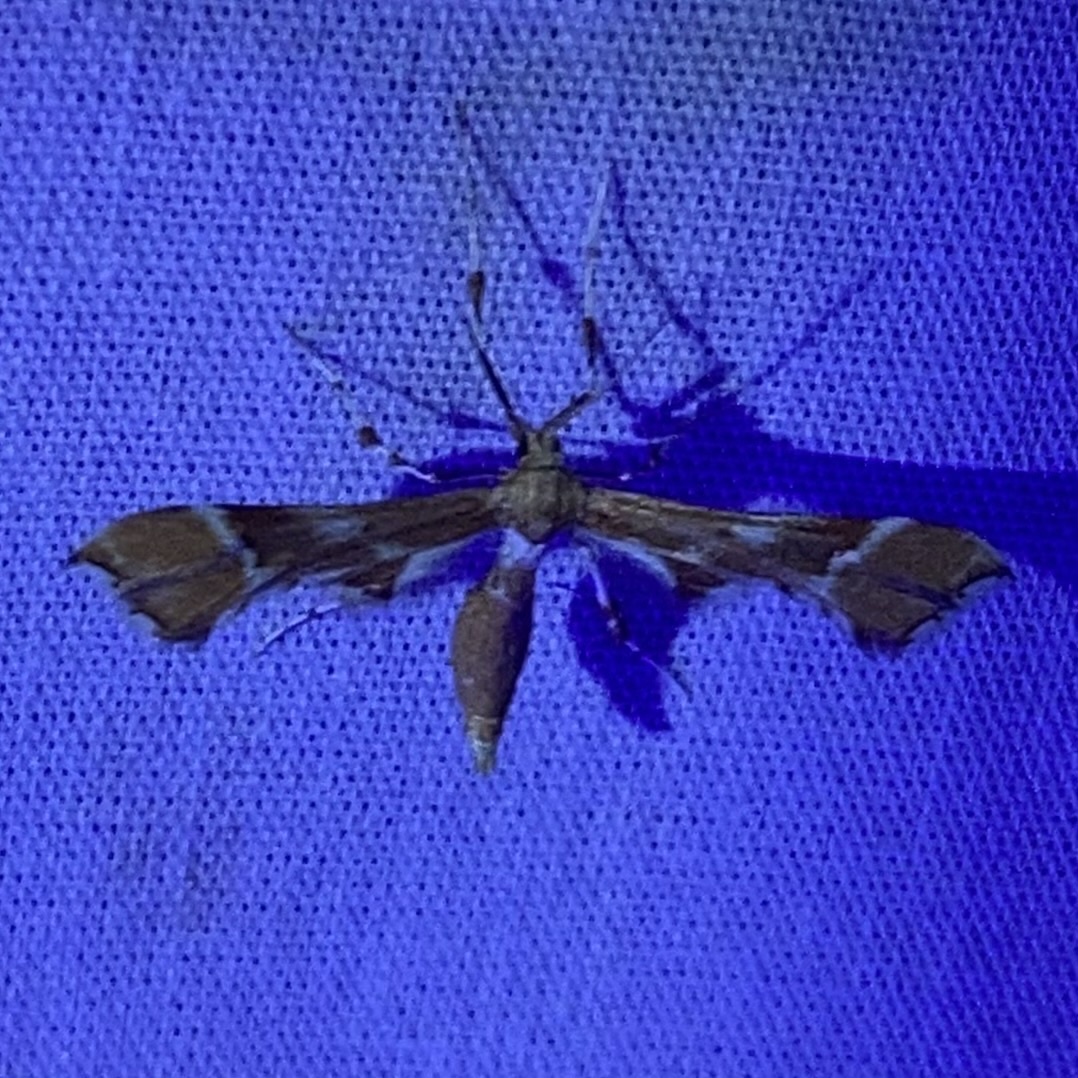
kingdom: Animalia
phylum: Arthropoda
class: Insecta
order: Lepidoptera
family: Pterophoridae
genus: Cnaemidophorus
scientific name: Cnaemidophorus rhododactyla
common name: Rose plume
